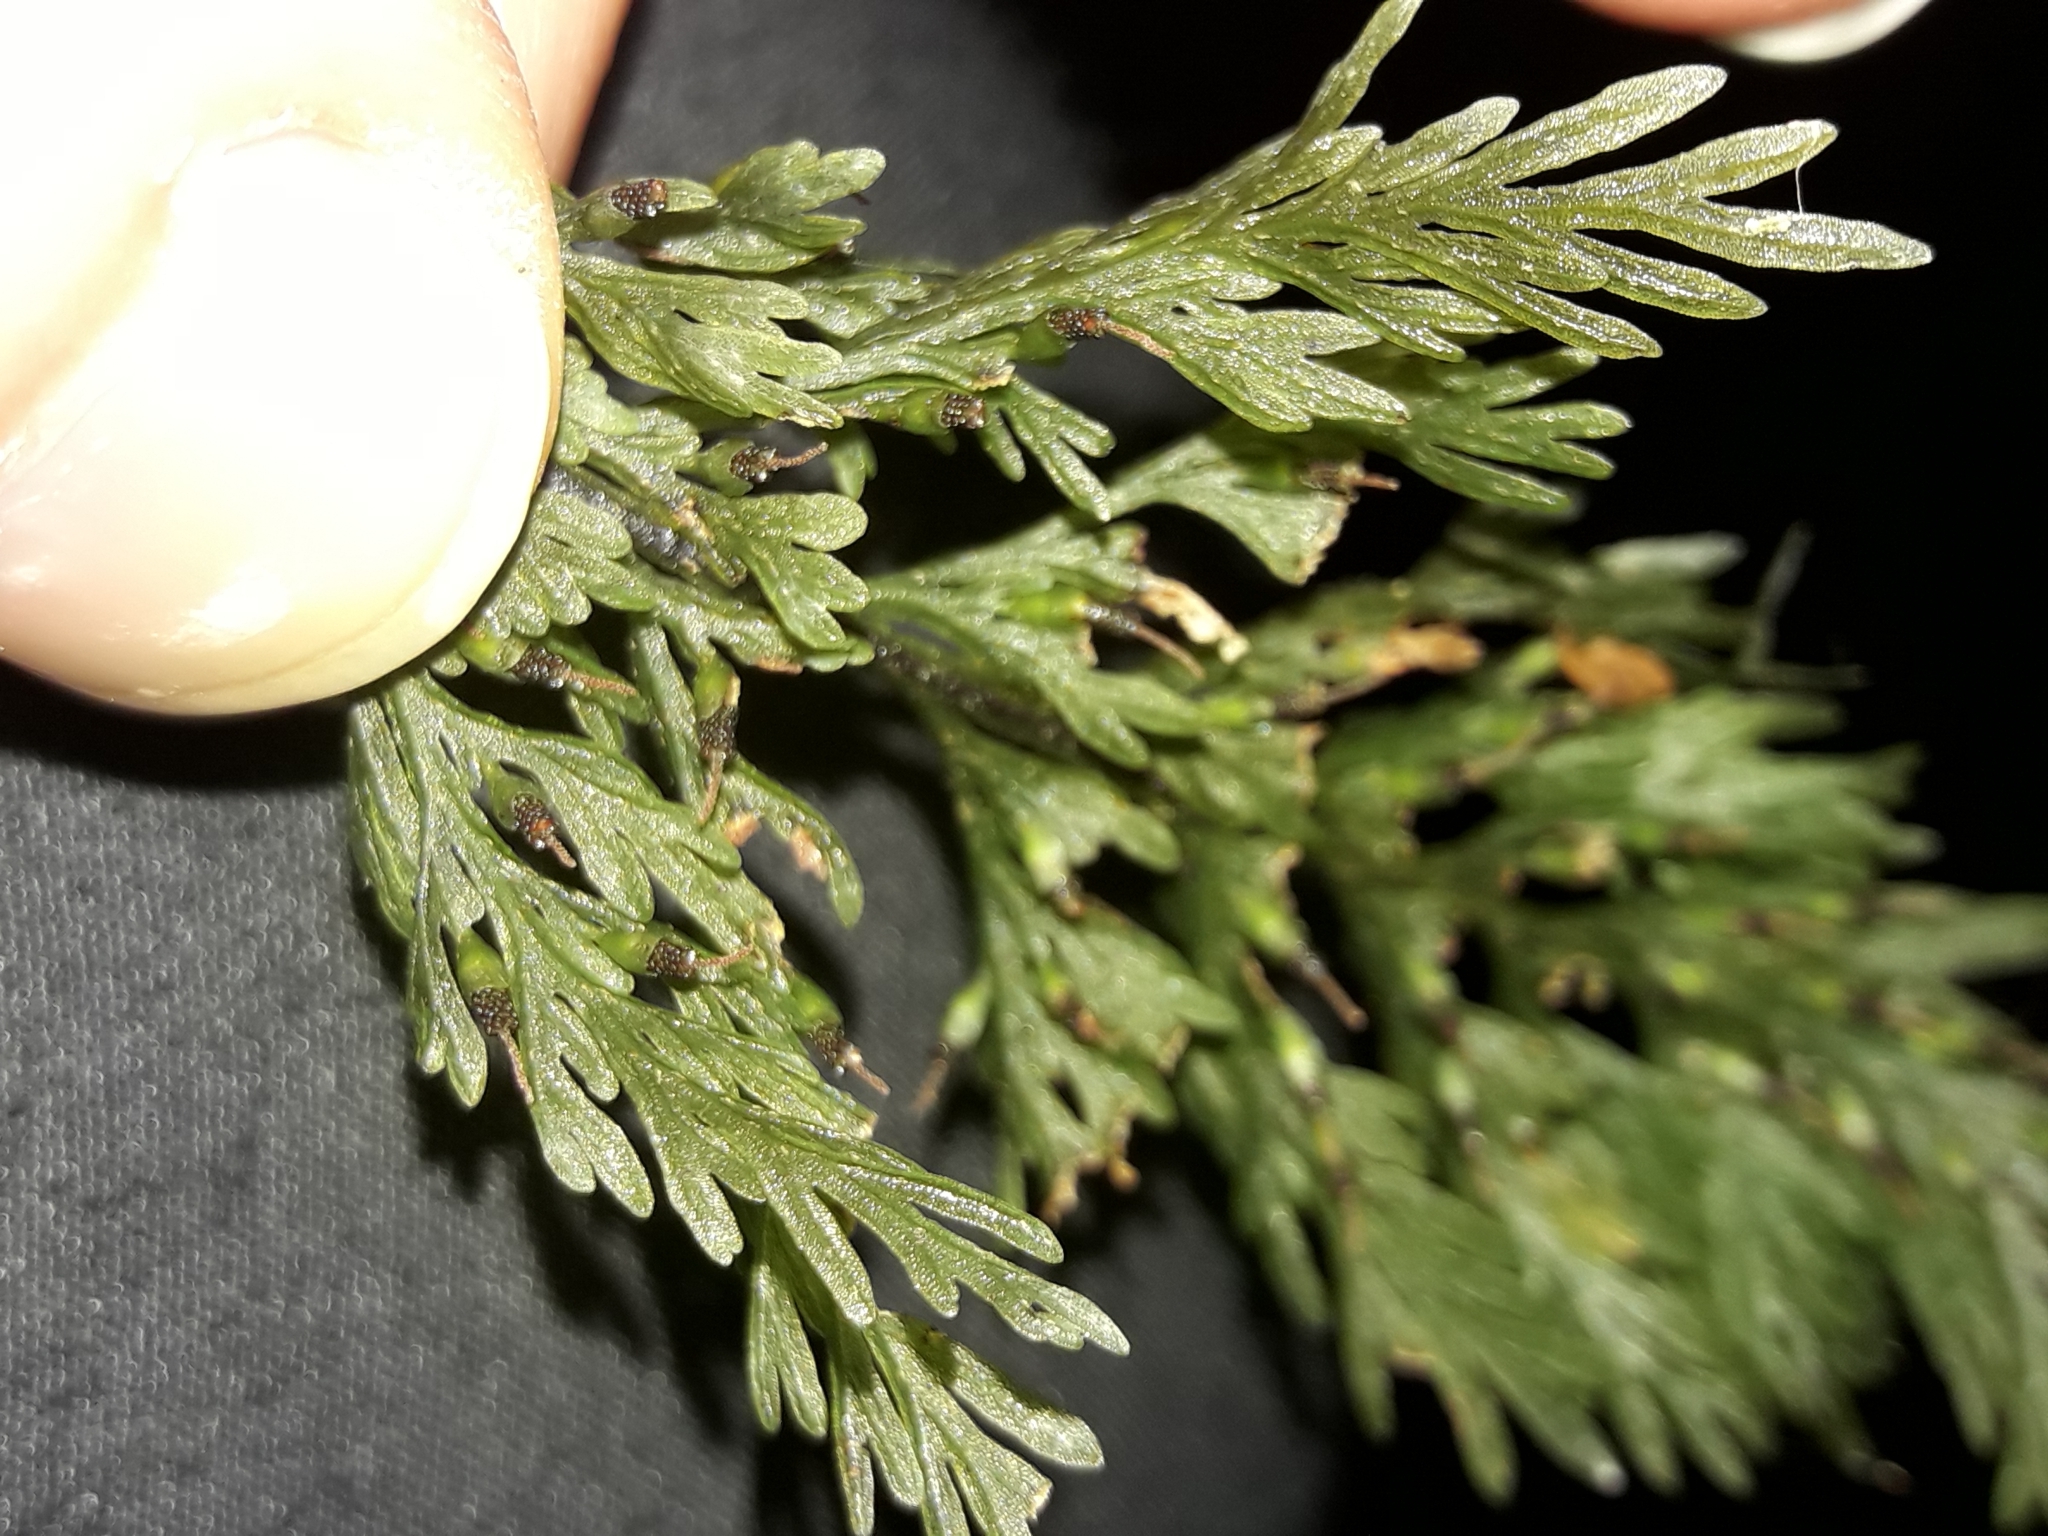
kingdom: Plantae
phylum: Tracheophyta
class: Polypodiopsida
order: Hymenophyllales
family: Hymenophyllaceae
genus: Abrodictyum
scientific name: Abrodictyum strictum
